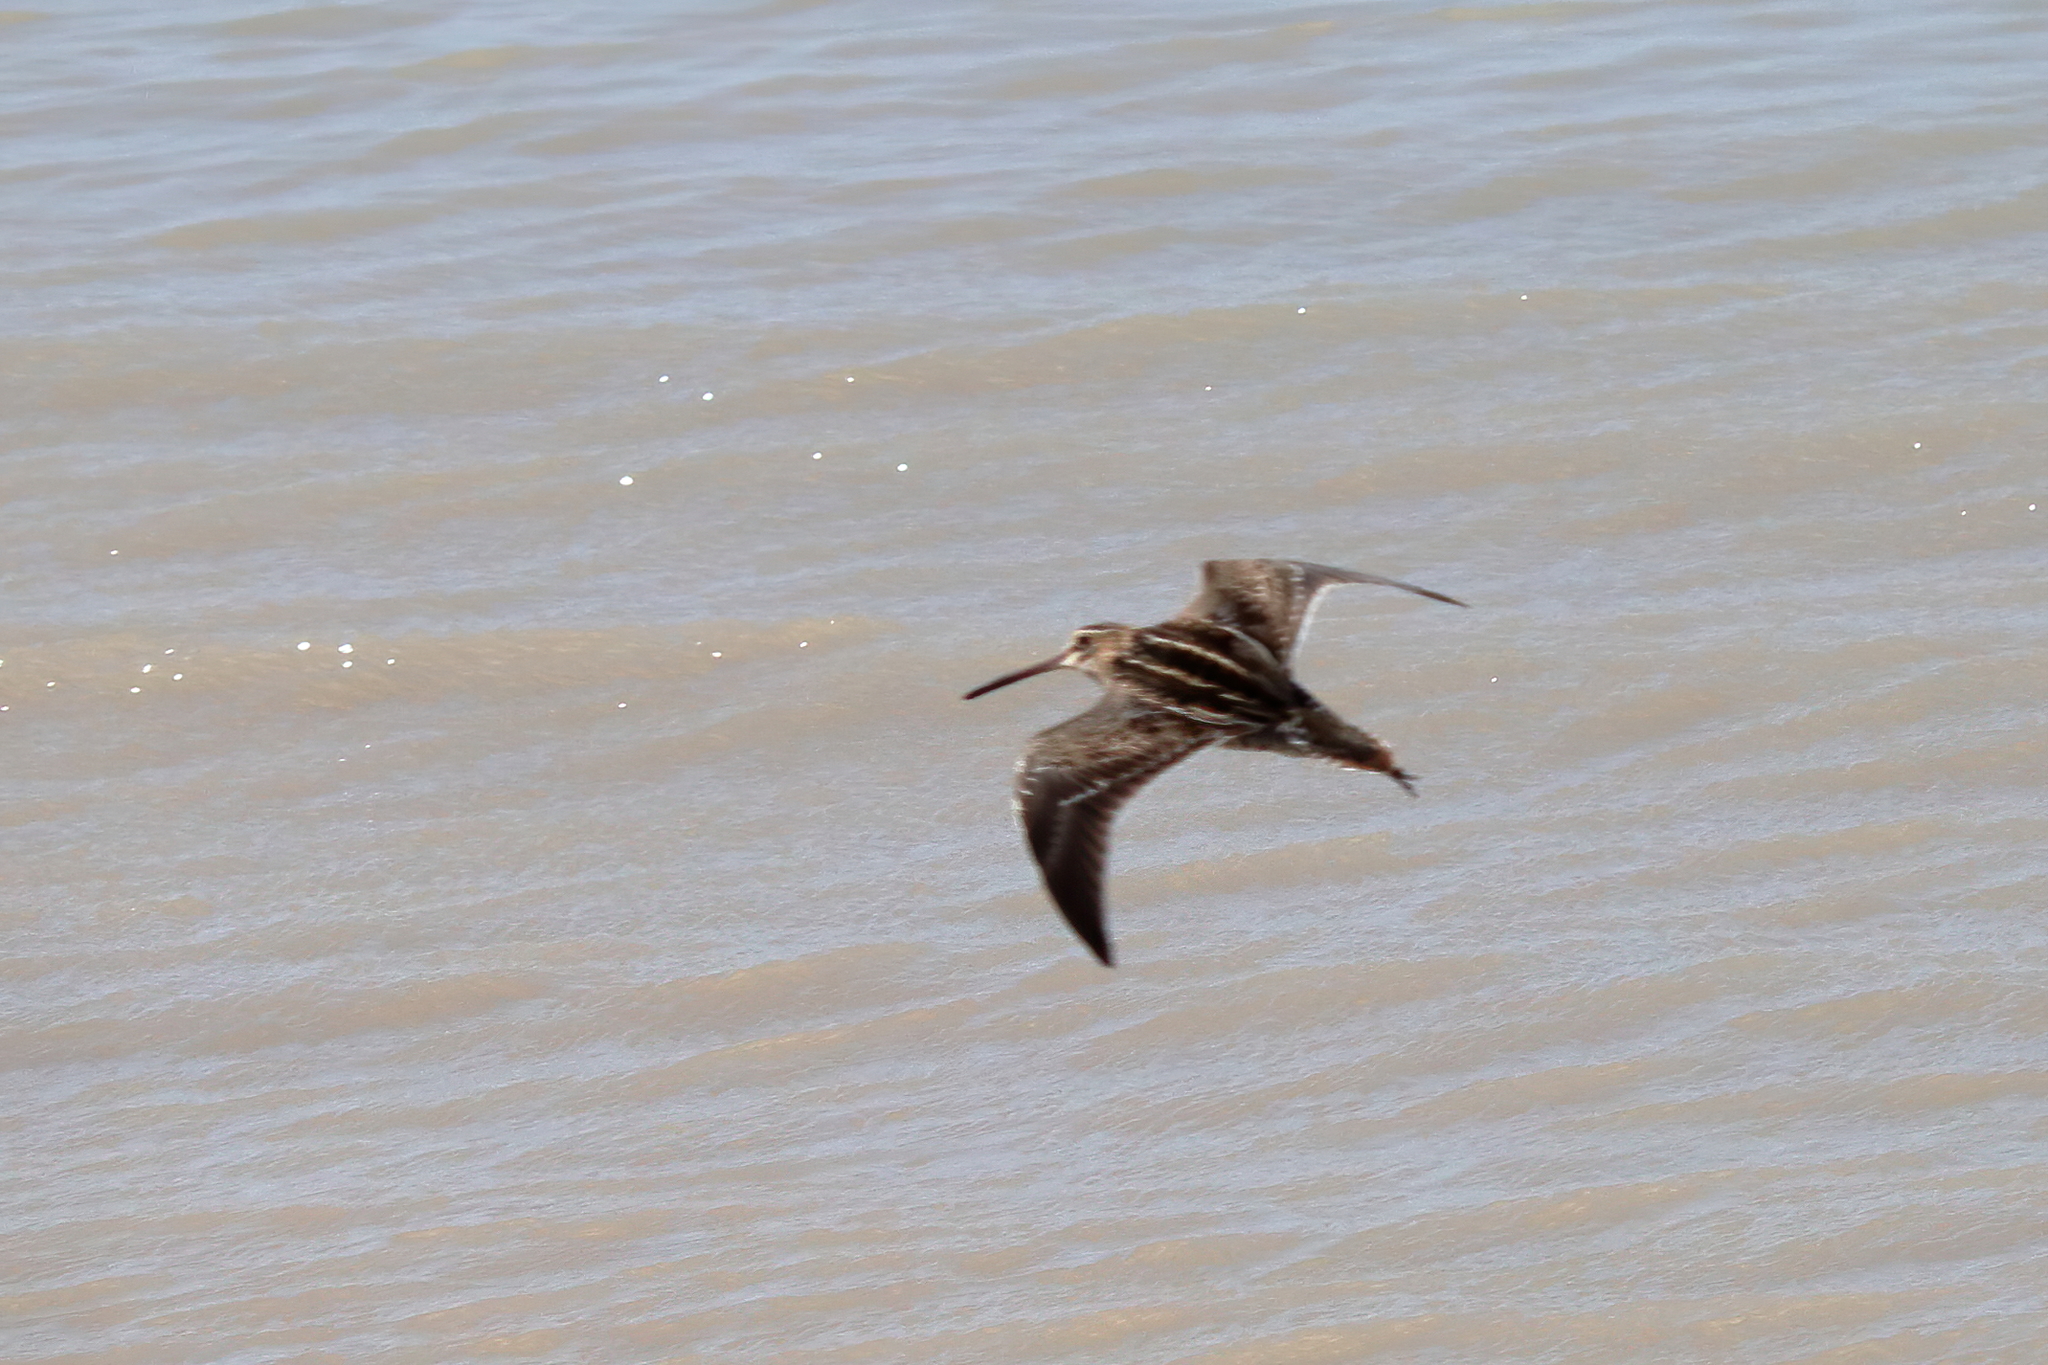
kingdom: Animalia
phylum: Chordata
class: Aves
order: Charadriiformes
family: Scolopacidae
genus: Gallinago
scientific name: Gallinago delicata
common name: Wilson's snipe
